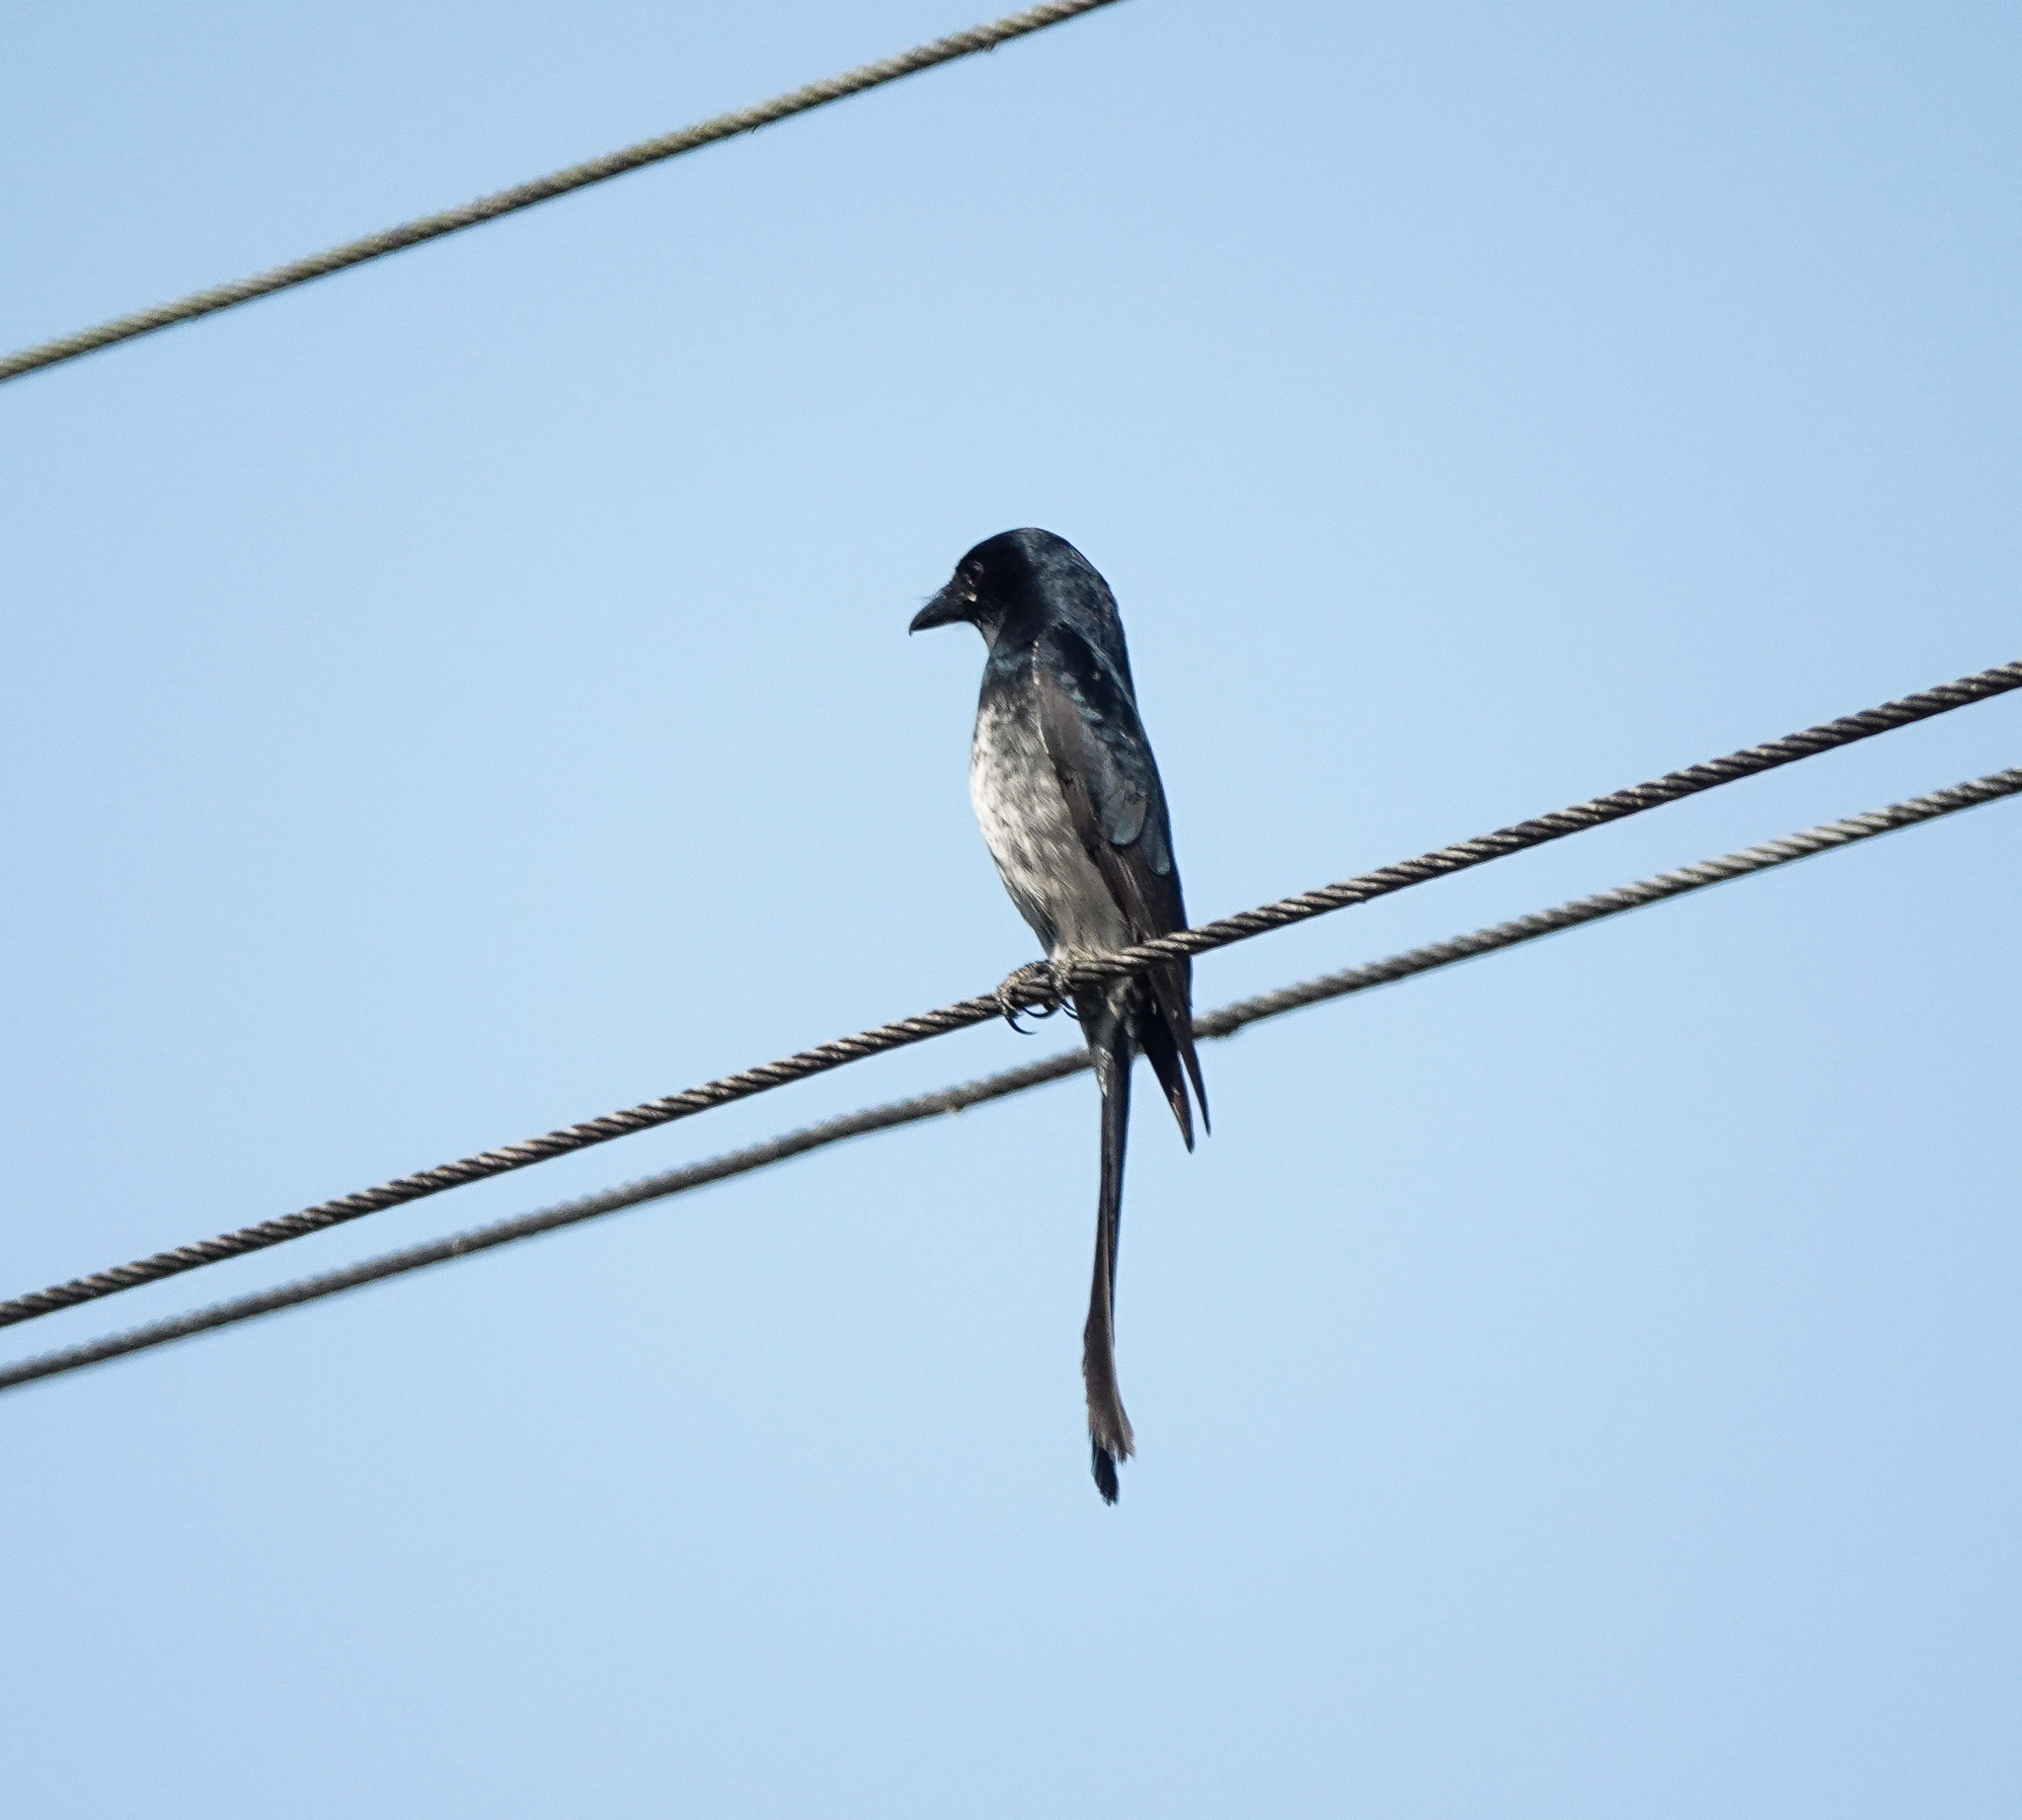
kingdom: Animalia
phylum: Chordata
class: Aves
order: Passeriformes
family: Dicruridae
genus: Dicrurus
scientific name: Dicrurus macrocercus
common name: Black drongo
